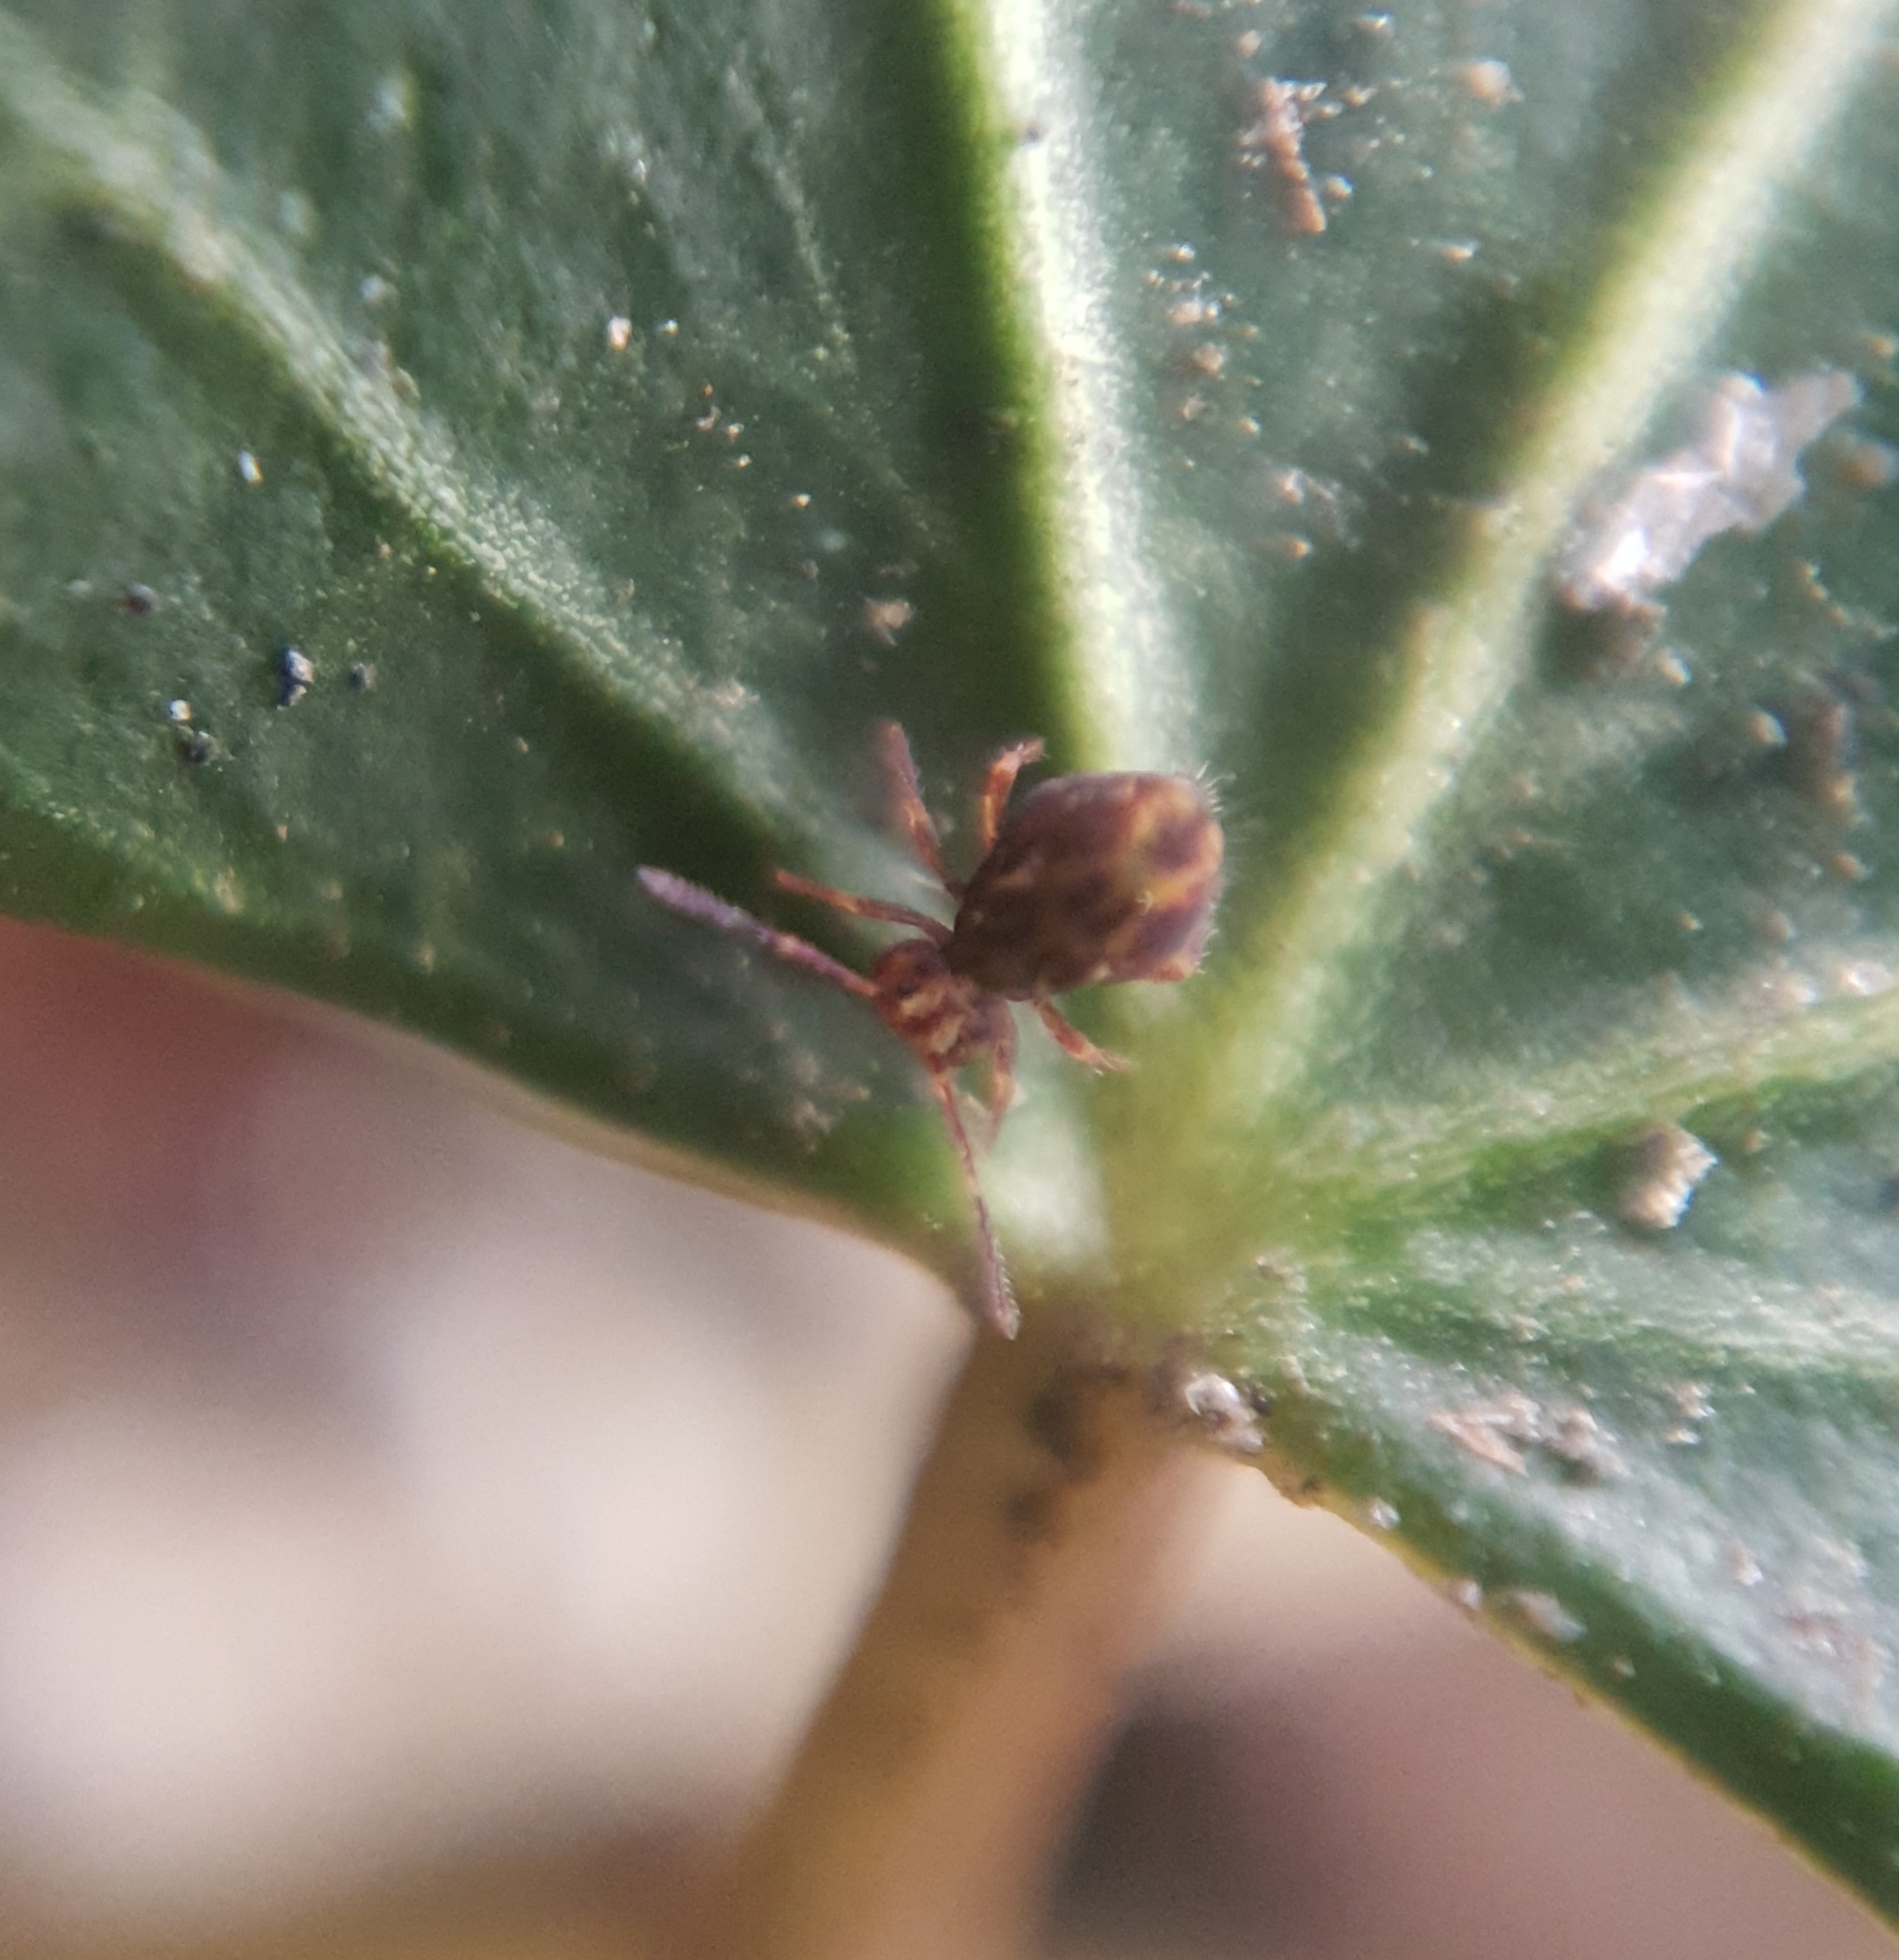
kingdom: Animalia
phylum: Arthropoda
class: Collembola
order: Symphypleona
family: Dicyrtomidae
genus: Dicyrtomina
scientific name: Dicyrtomina saundersi
